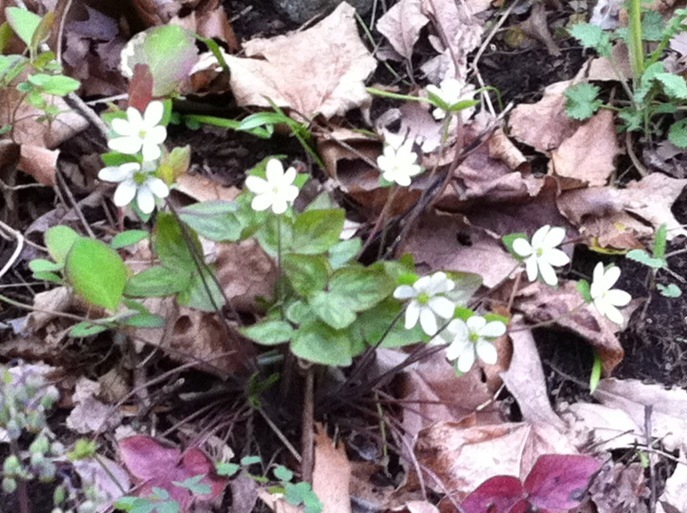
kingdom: Plantae
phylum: Tracheophyta
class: Magnoliopsida
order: Ranunculales
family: Ranunculaceae
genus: Hepatica
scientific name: Hepatica acutiloba
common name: Sharp-lobed hepatica
